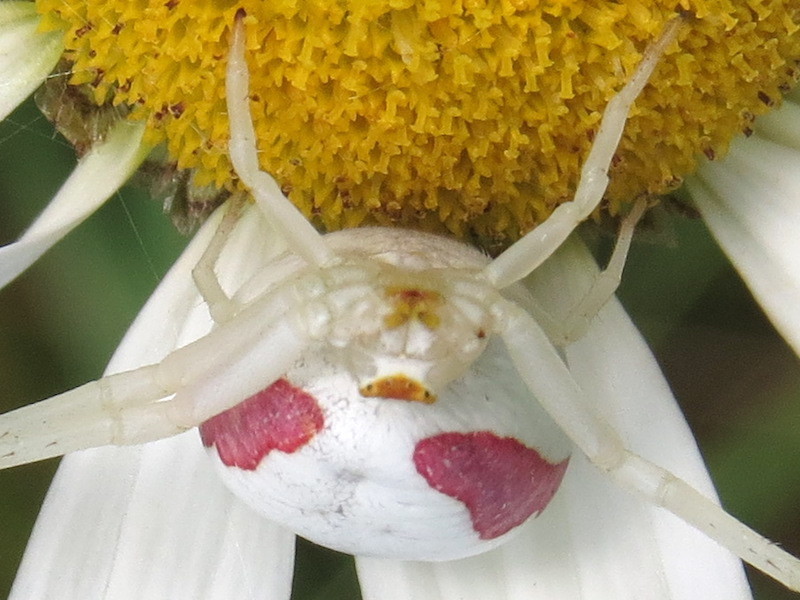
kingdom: Animalia
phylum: Arthropoda
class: Arachnida
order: Araneae
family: Thomisidae
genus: Misumena
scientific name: Misumena vatia
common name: Goldenrod crab spider
